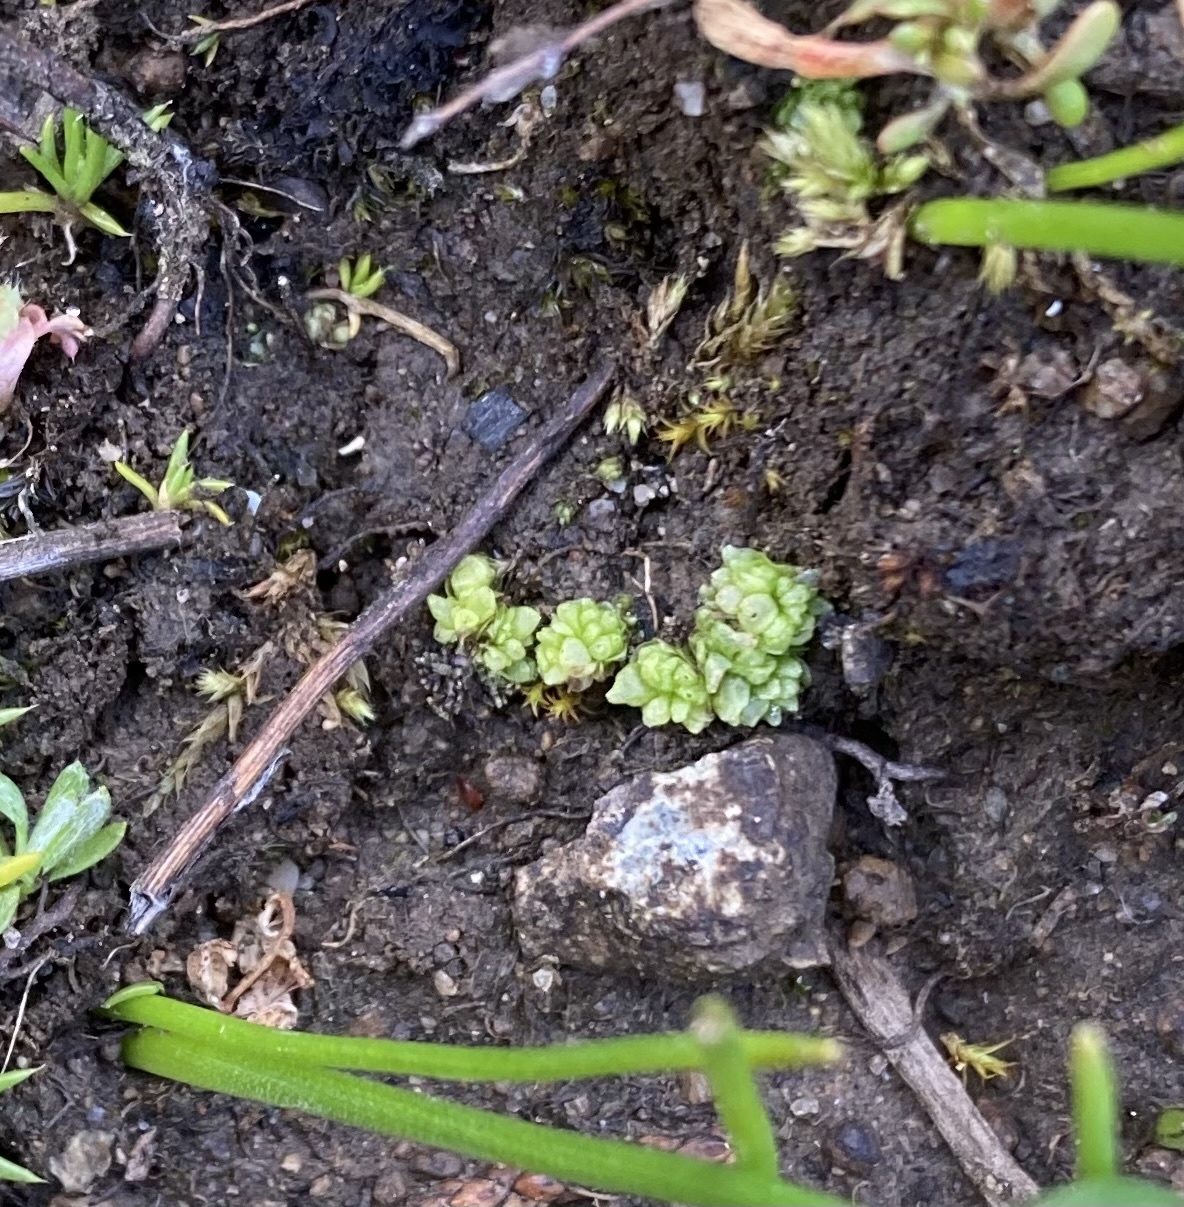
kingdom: Plantae
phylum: Marchantiophyta
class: Marchantiopsida
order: Sphaerocarpales
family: Sphaerocarpaceae
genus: Sphaerocarpos
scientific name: Sphaerocarpos texanus
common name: Texas balloonwort
